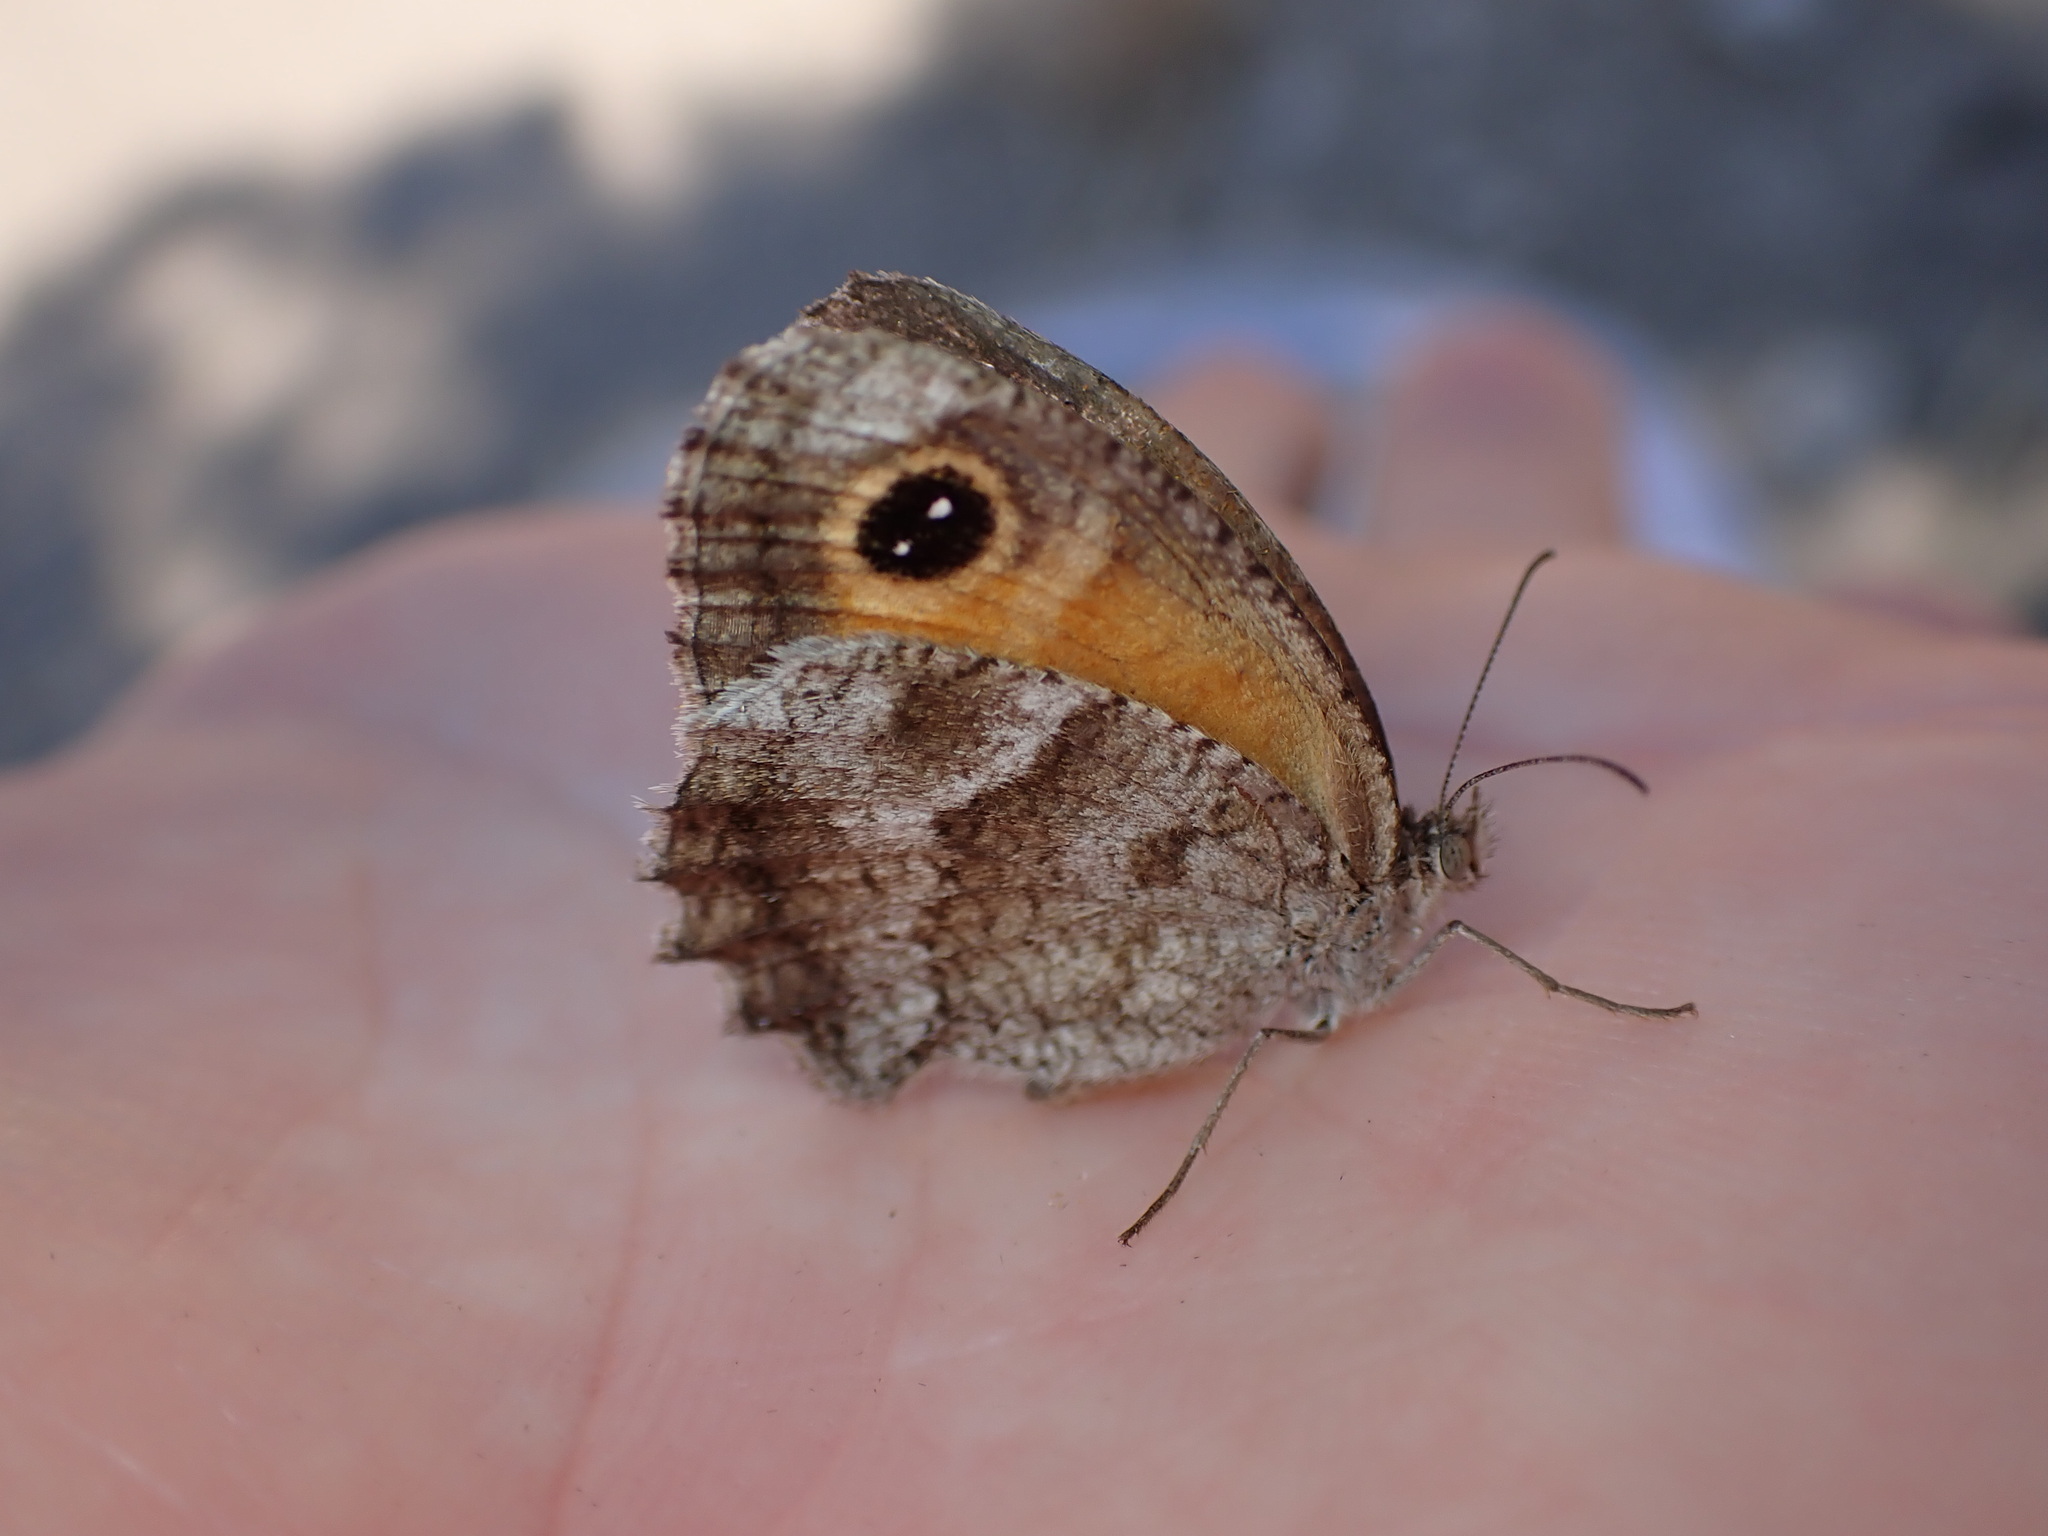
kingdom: Animalia
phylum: Arthropoda
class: Insecta
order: Lepidoptera
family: Nymphalidae
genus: Pyronia
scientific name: Pyronia cecilia
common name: Southern gatekeeper
